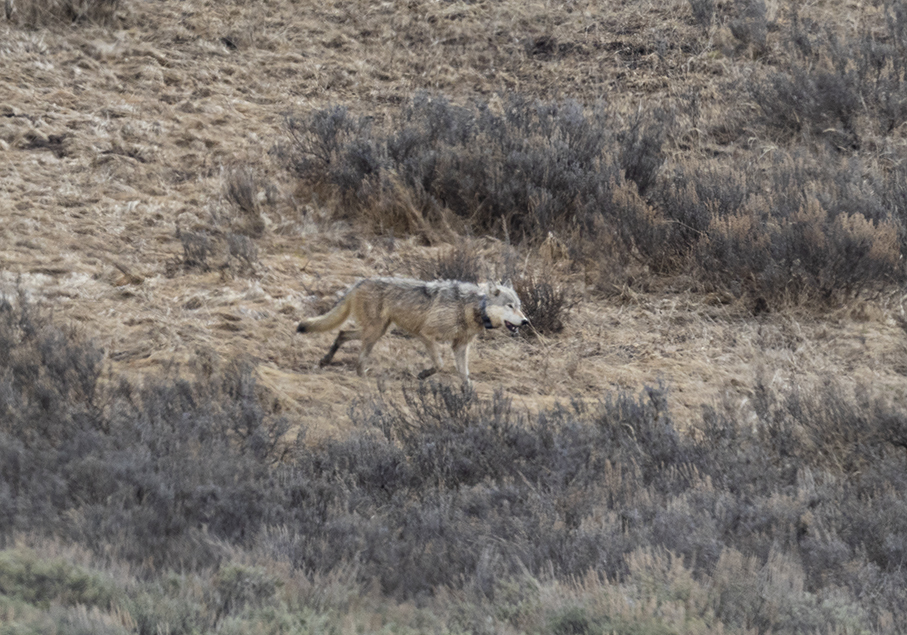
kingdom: Animalia
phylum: Chordata
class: Mammalia
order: Carnivora
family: Canidae
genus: Canis
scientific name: Canis lupus
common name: Gray wolf
